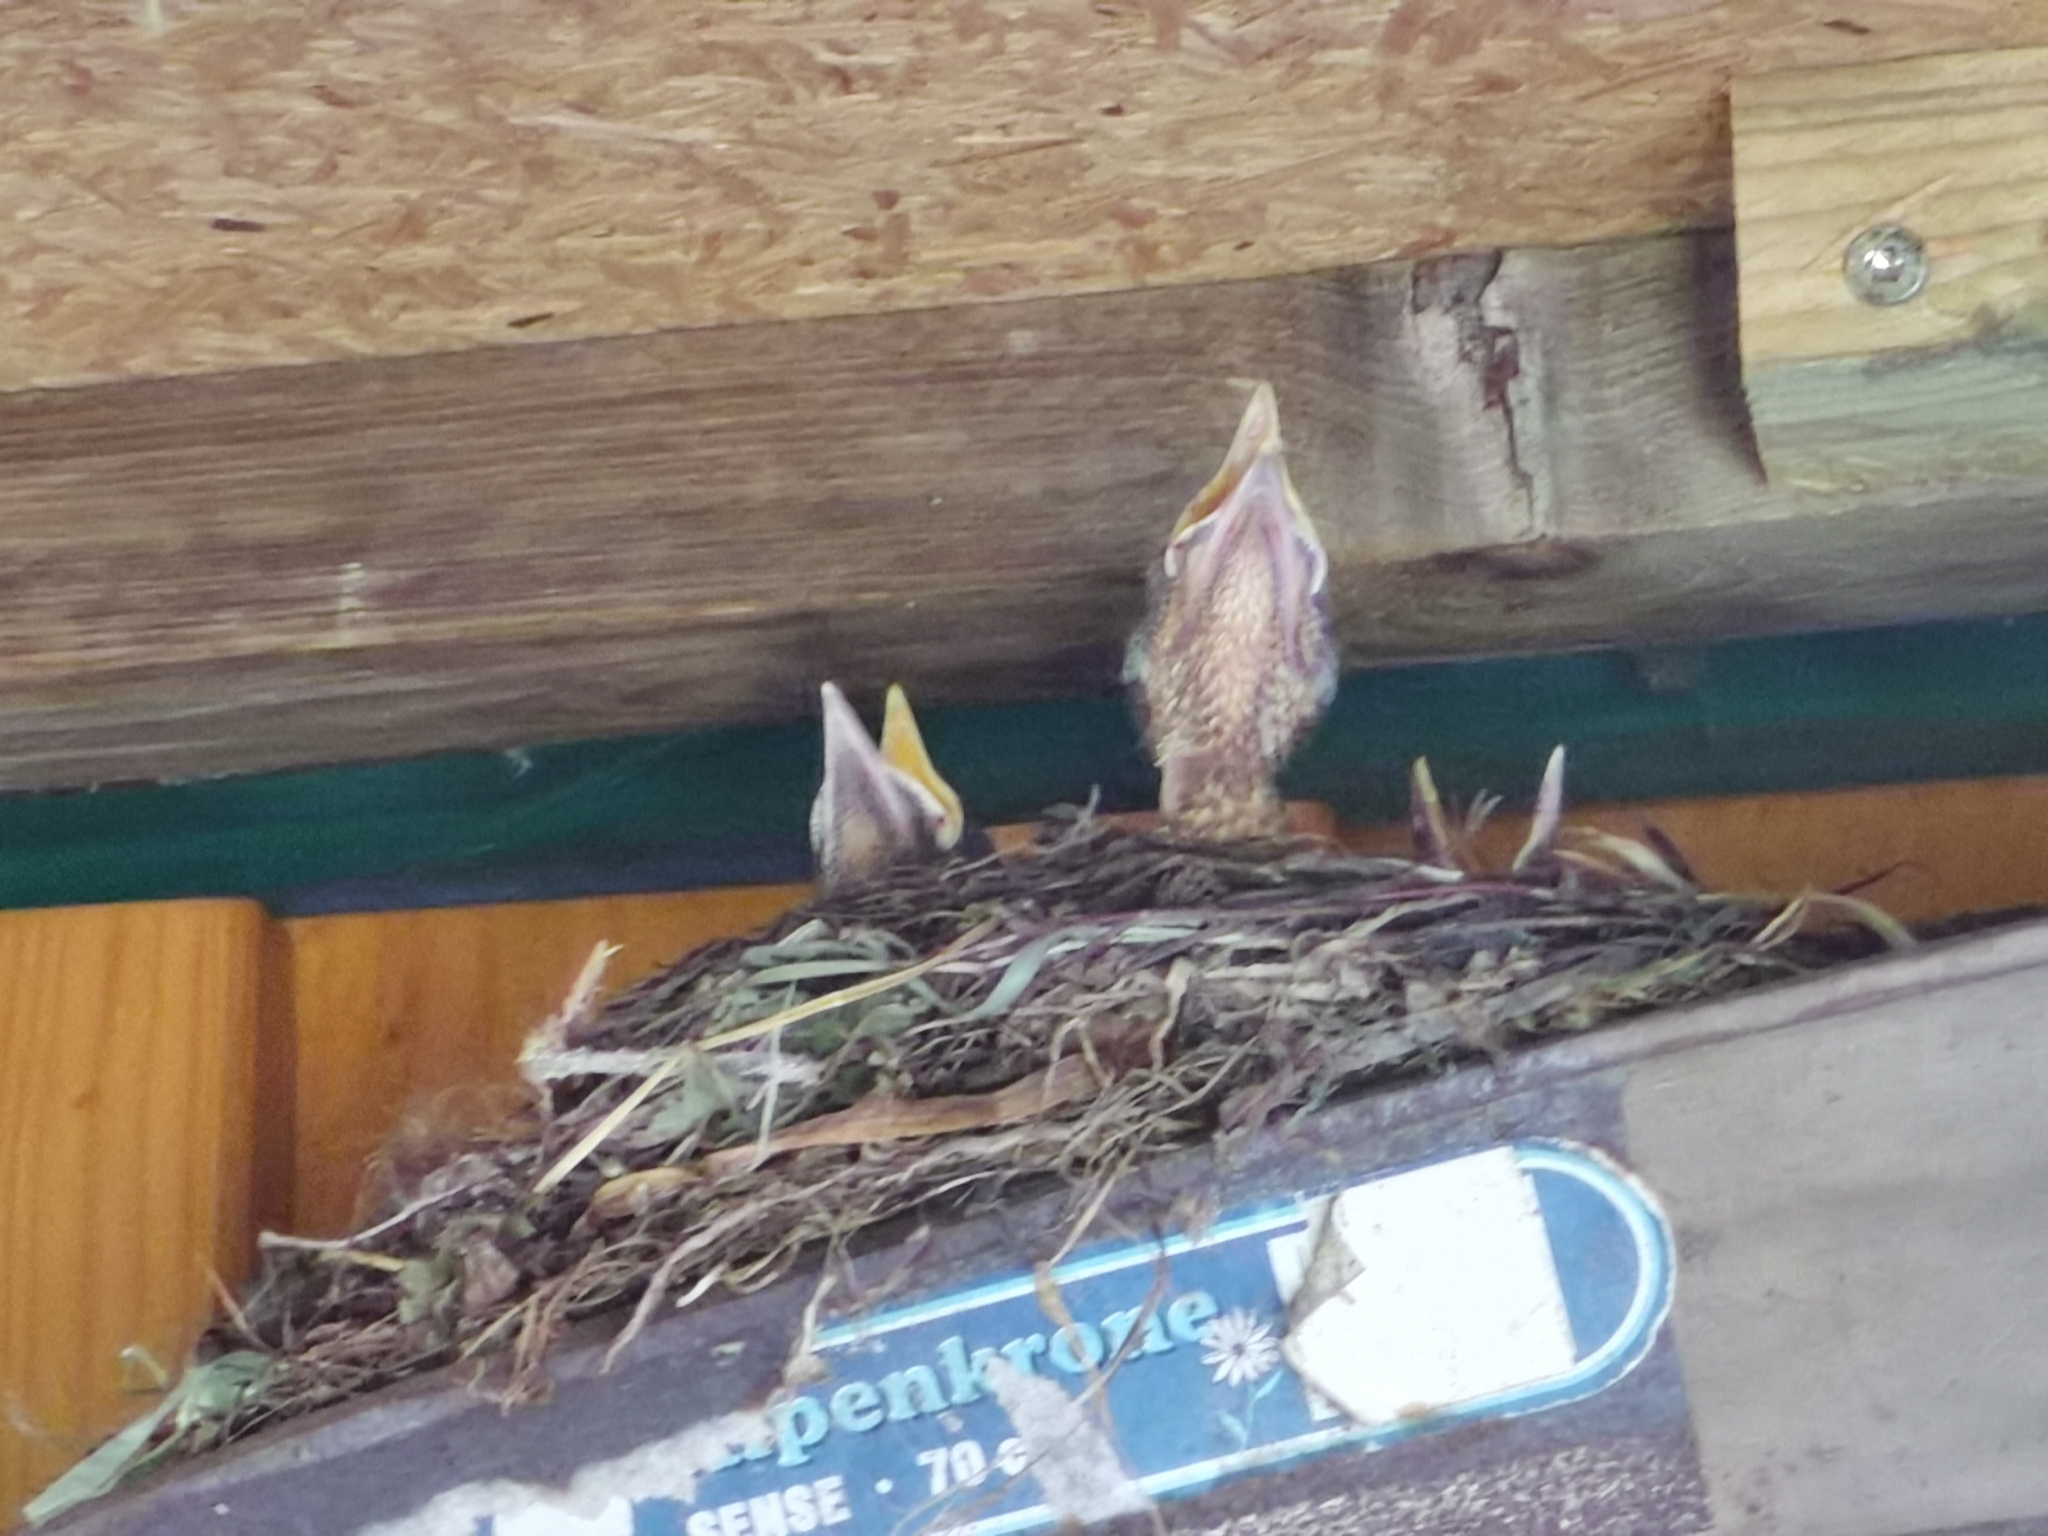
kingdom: Animalia
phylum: Chordata
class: Aves
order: Passeriformes
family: Turdidae
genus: Turdus
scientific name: Turdus merula
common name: Common blackbird
